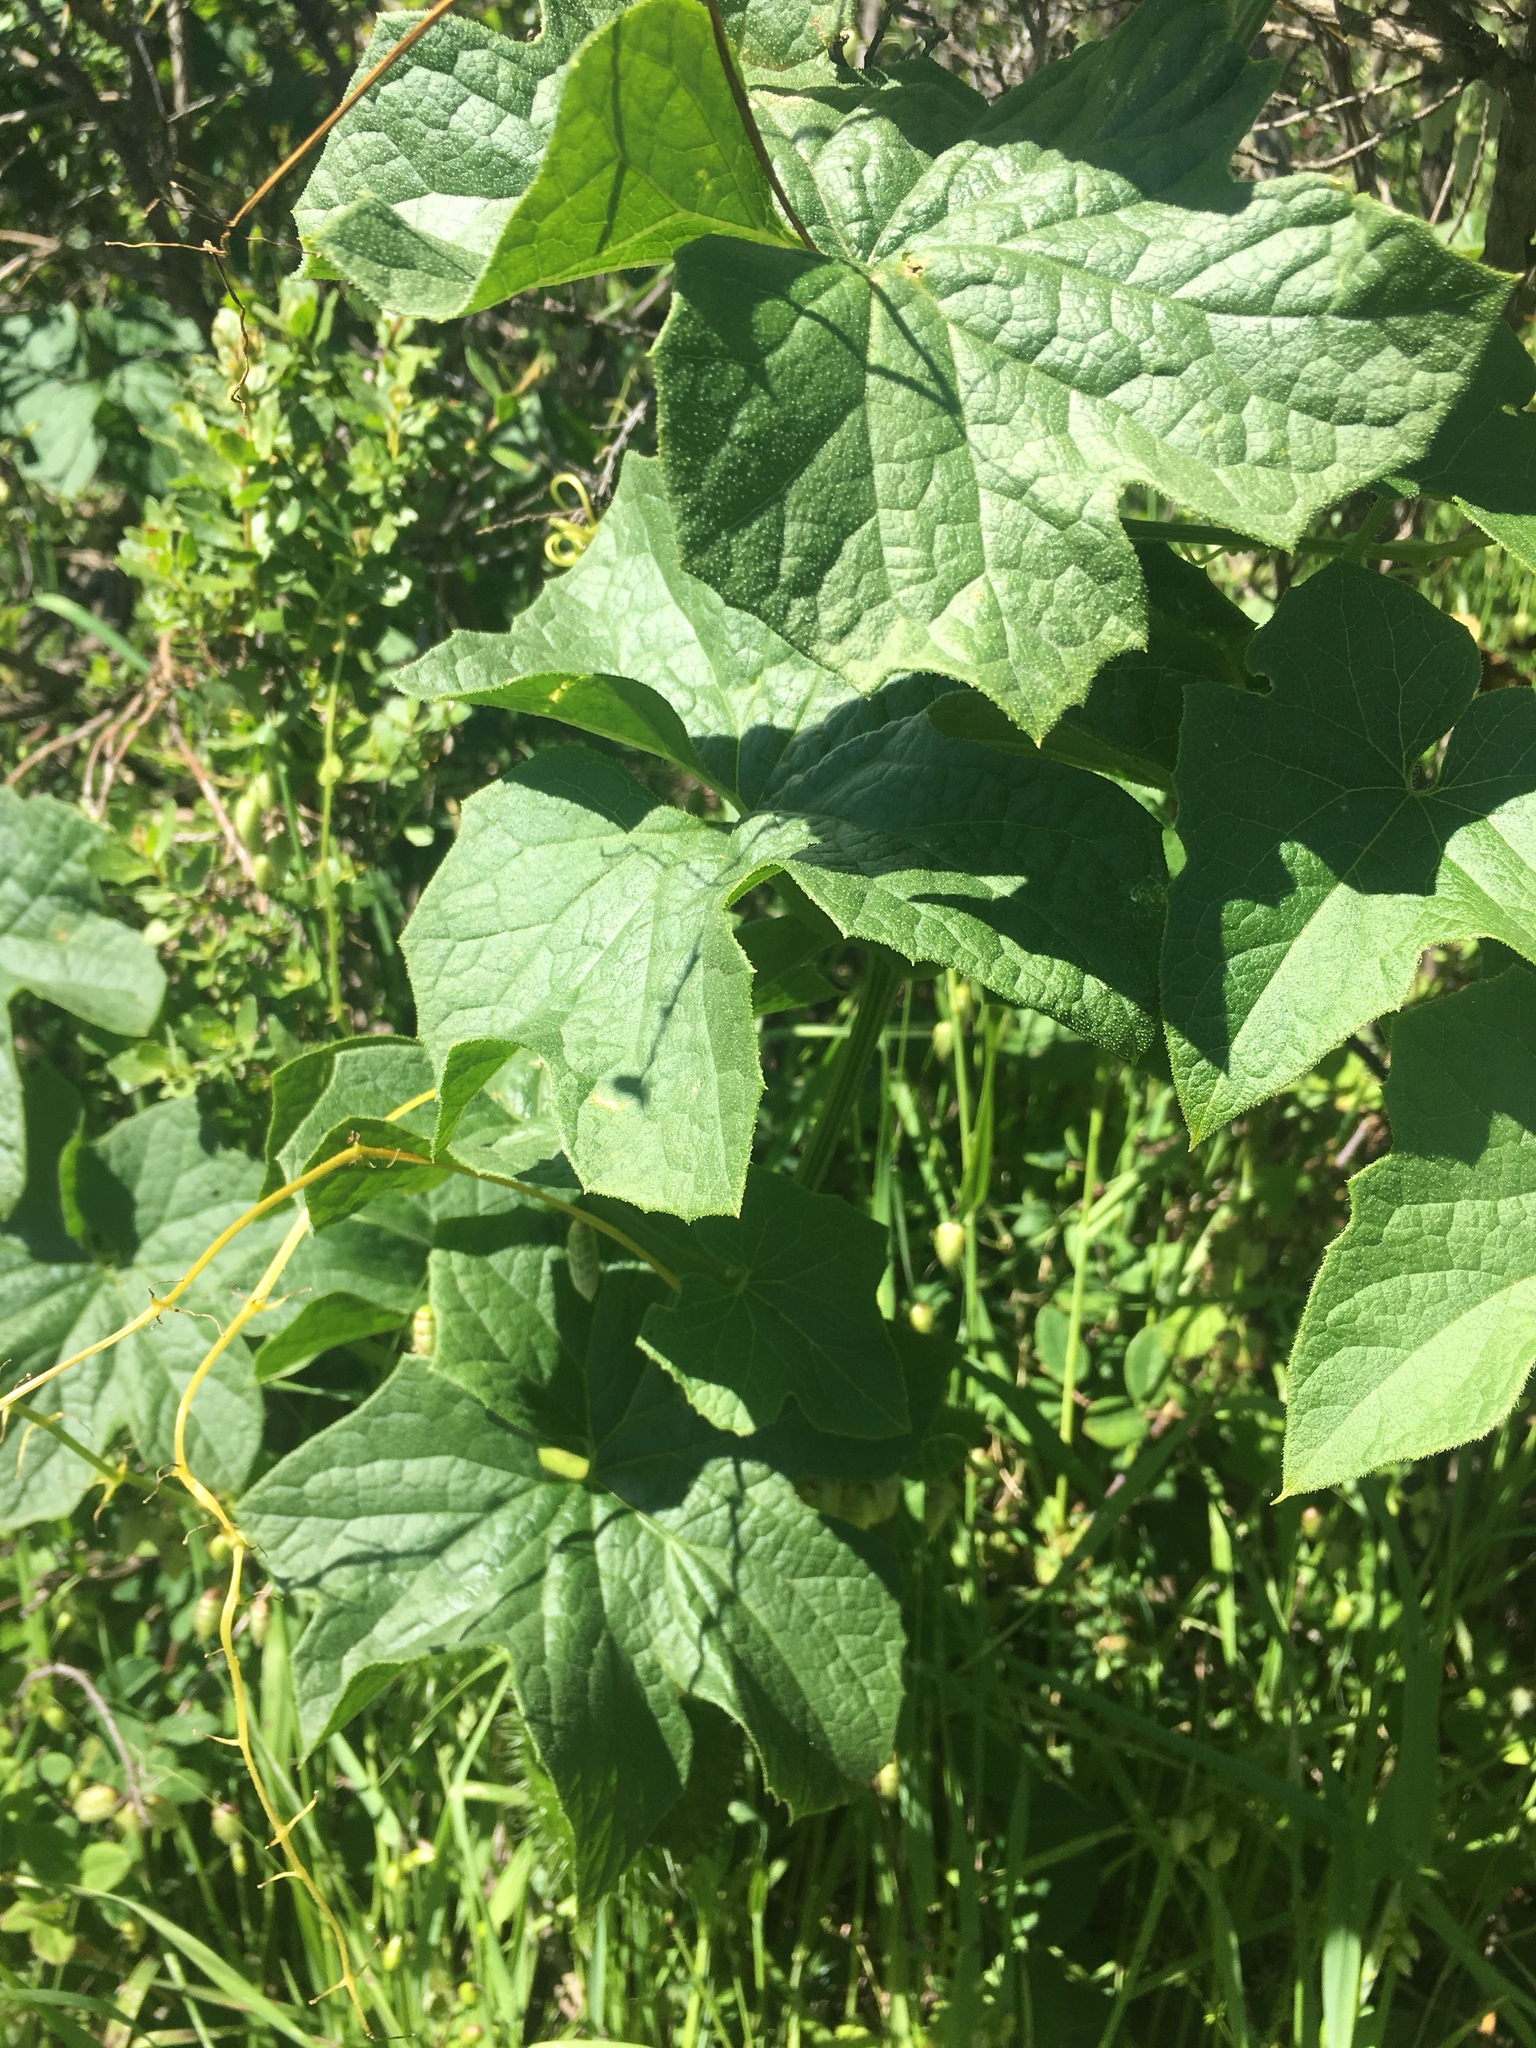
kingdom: Plantae
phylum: Tracheophyta
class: Magnoliopsida
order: Cucurbitales
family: Cucurbitaceae
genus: Marah
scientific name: Marah oregana
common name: Coastal manroot
